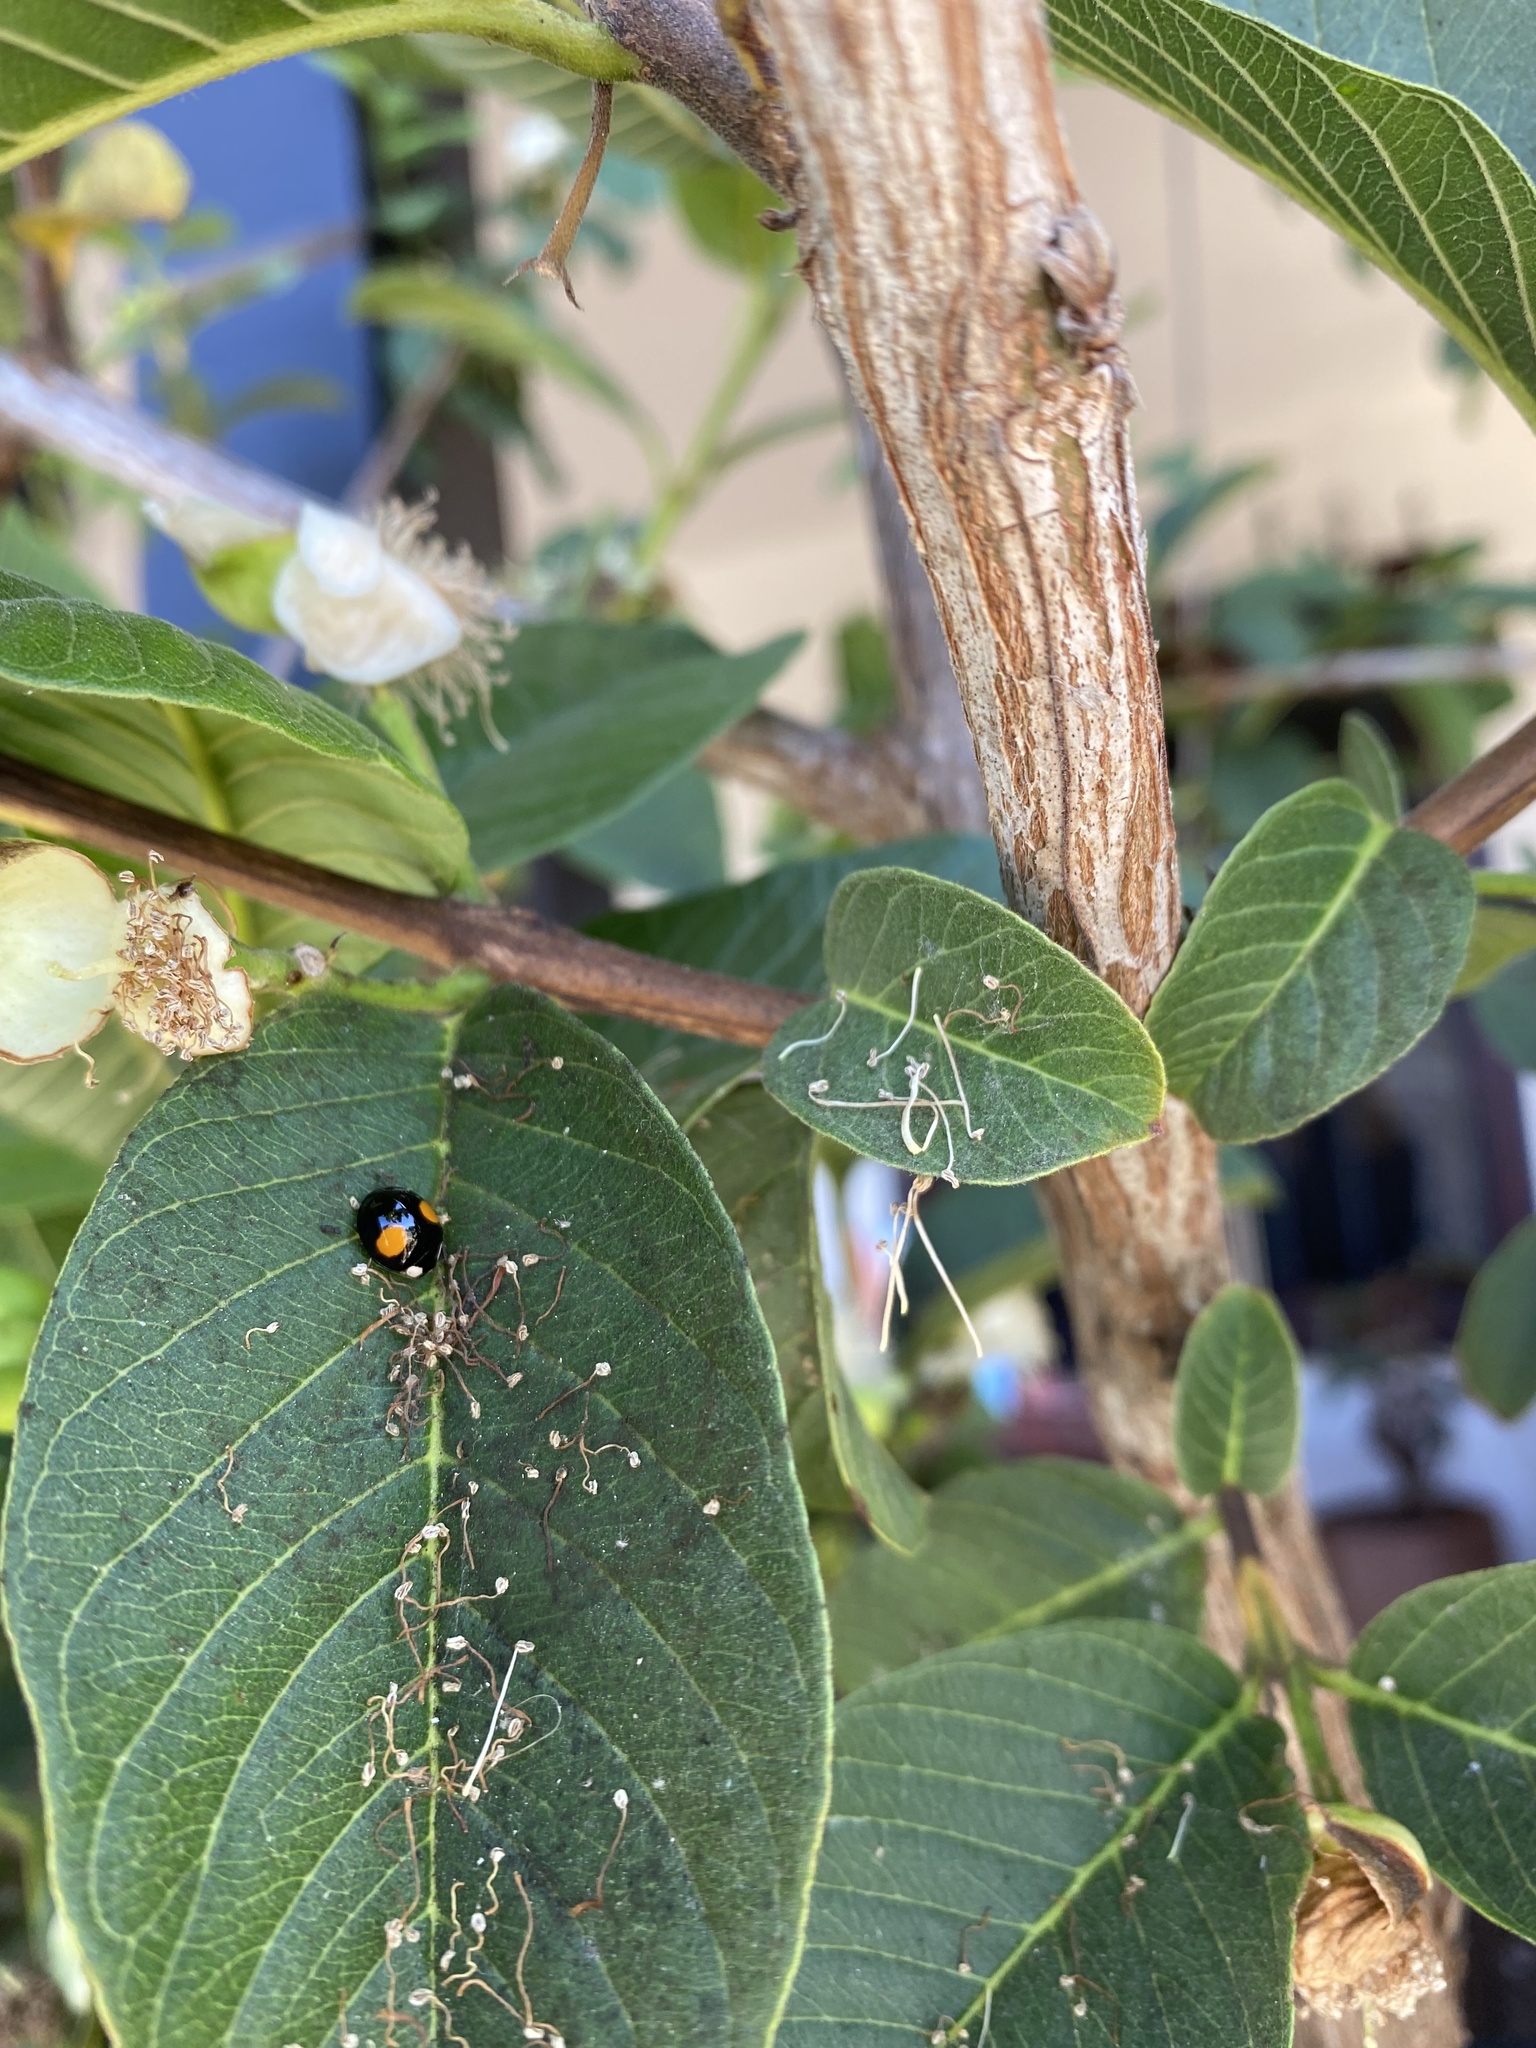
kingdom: Animalia
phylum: Arthropoda
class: Insecta
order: Coleoptera
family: Coccinellidae
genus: Harmonia
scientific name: Harmonia axyridis
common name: Harlequin ladybird
